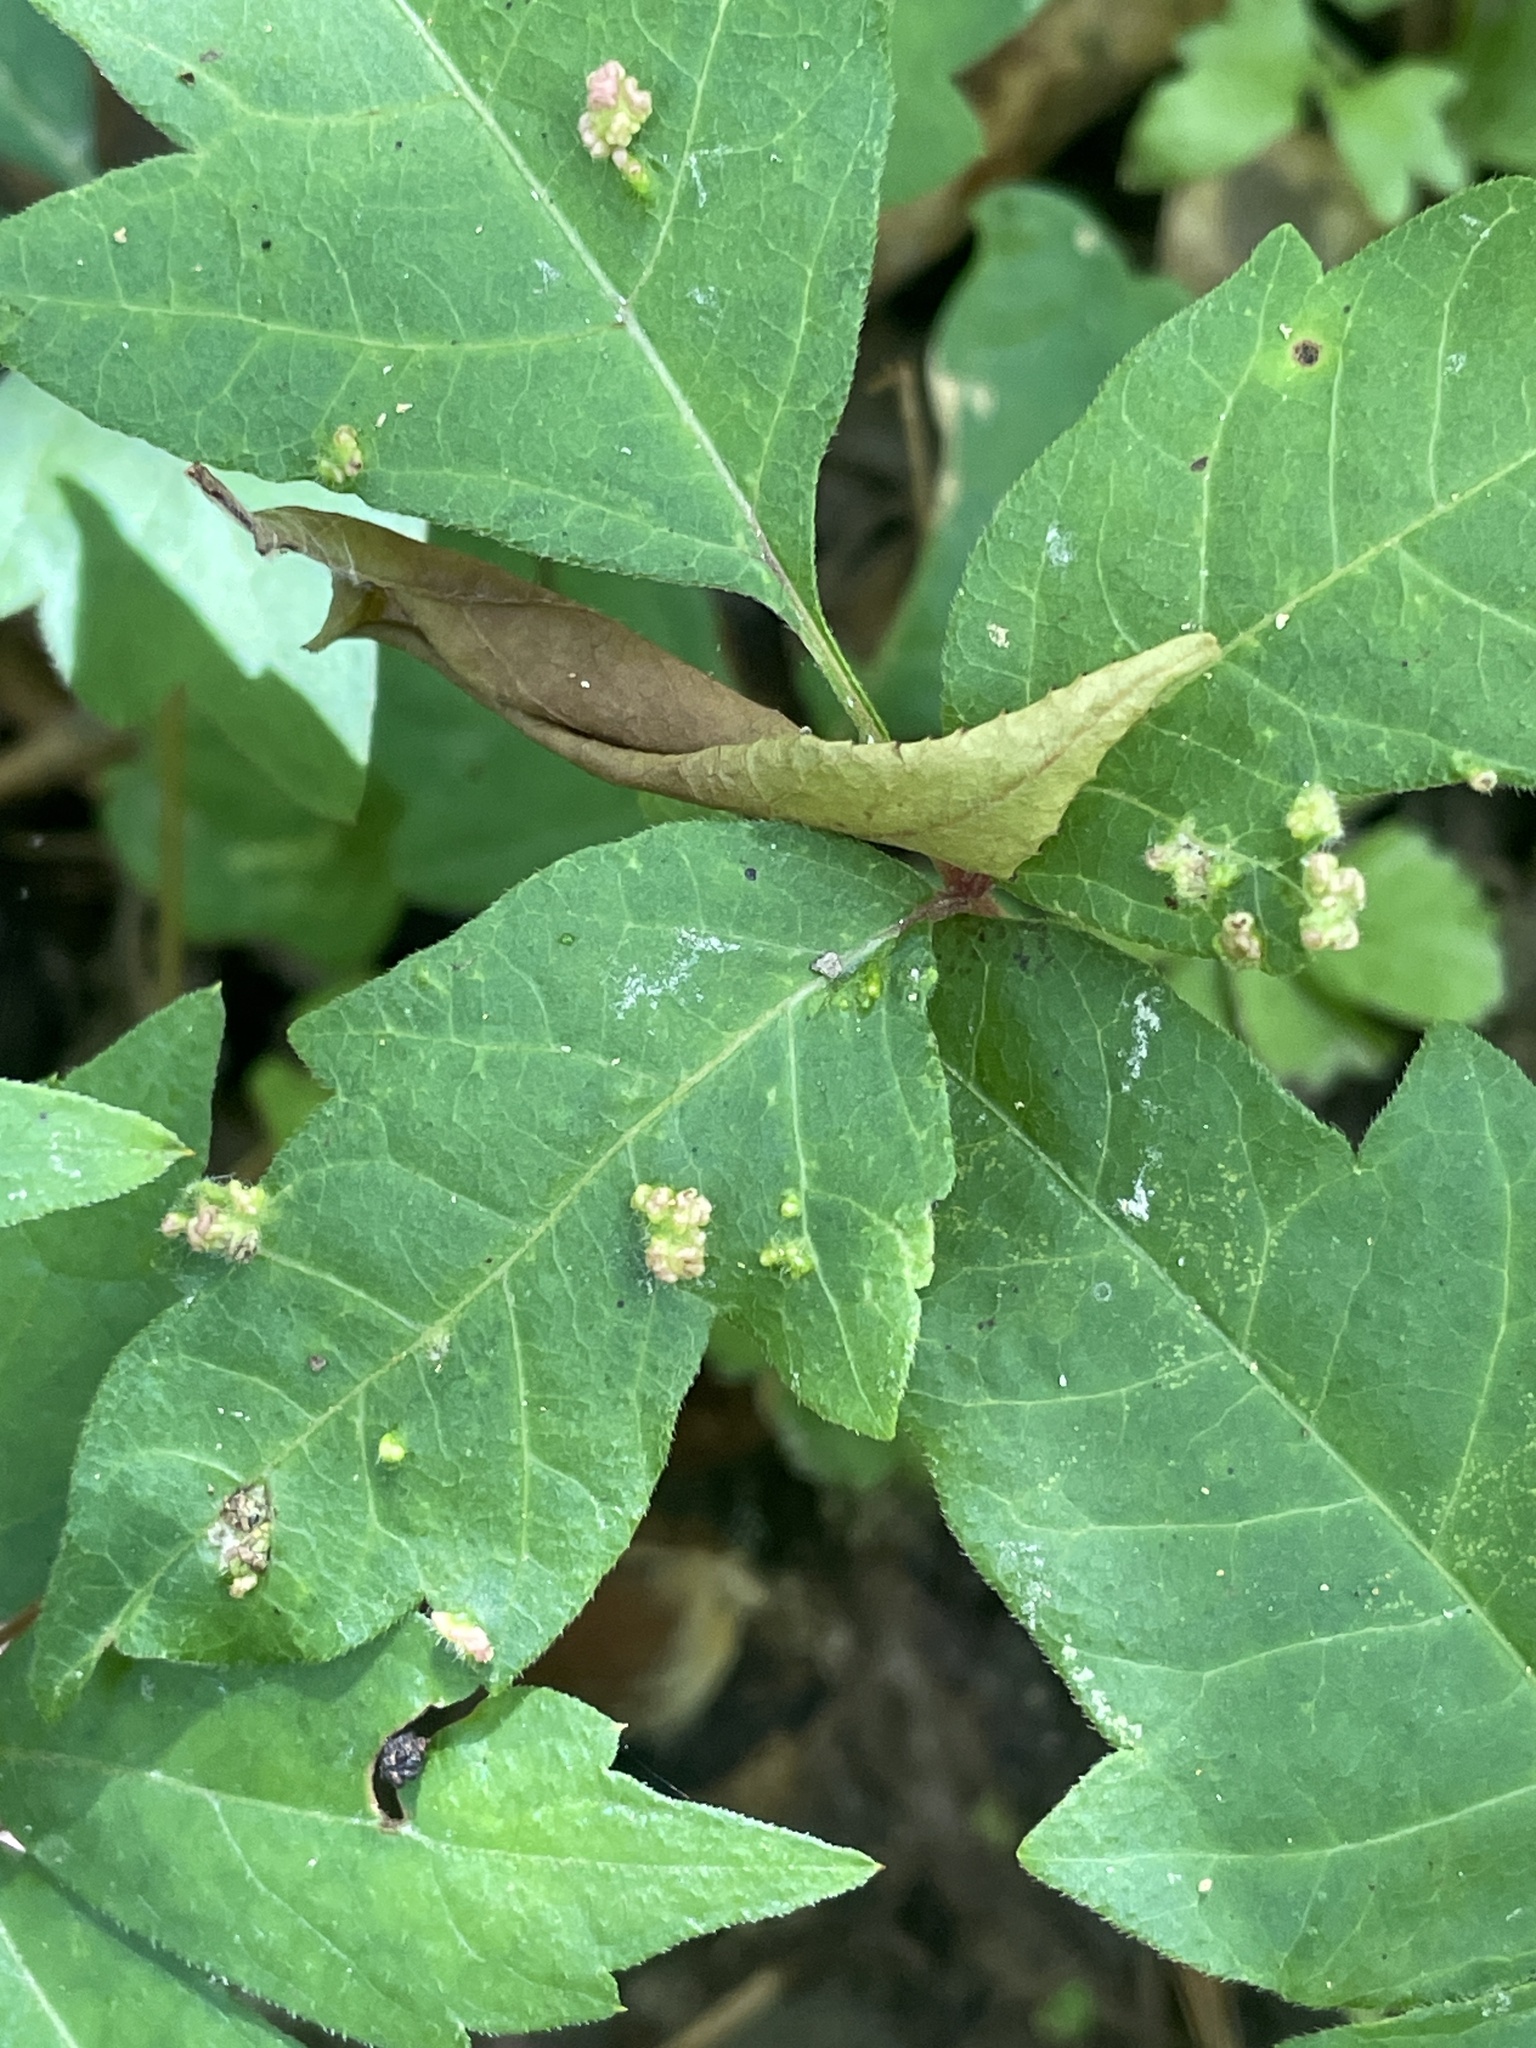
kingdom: Animalia
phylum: Arthropoda
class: Arachnida
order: Trombidiformes
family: Eriophyidae
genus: Aculops
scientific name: Aculops
